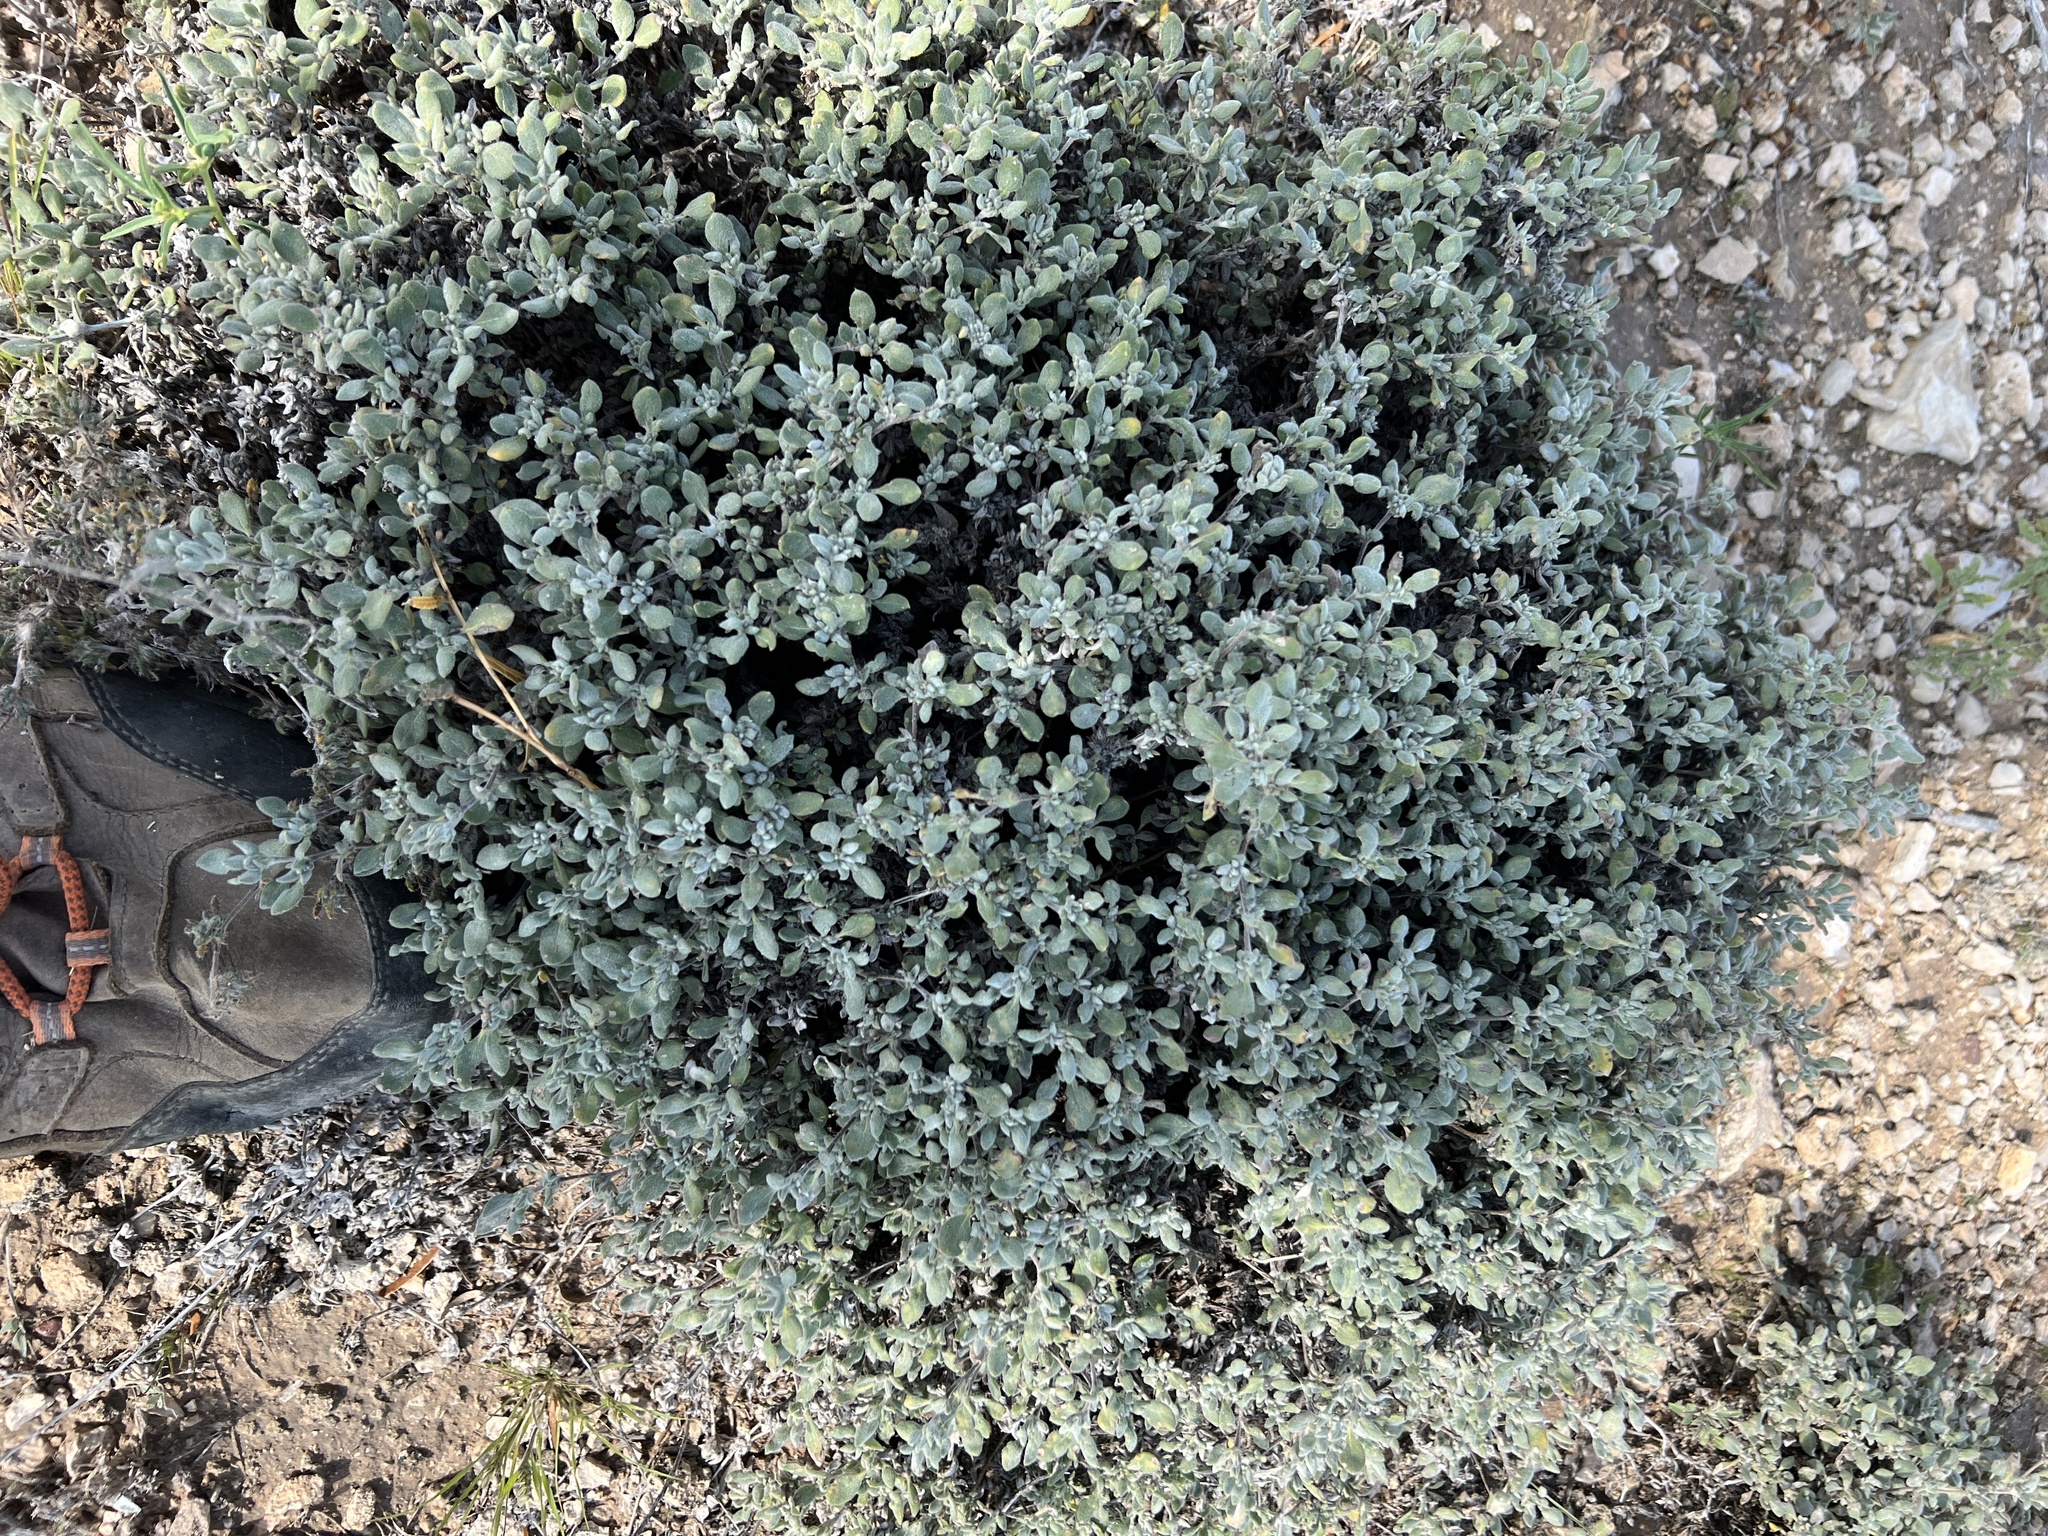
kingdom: Plantae
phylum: Tracheophyta
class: Magnoliopsida
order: Boraginales
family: Ehretiaceae
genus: Tiquilia
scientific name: Tiquilia canescens
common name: Hairy tiquilia
